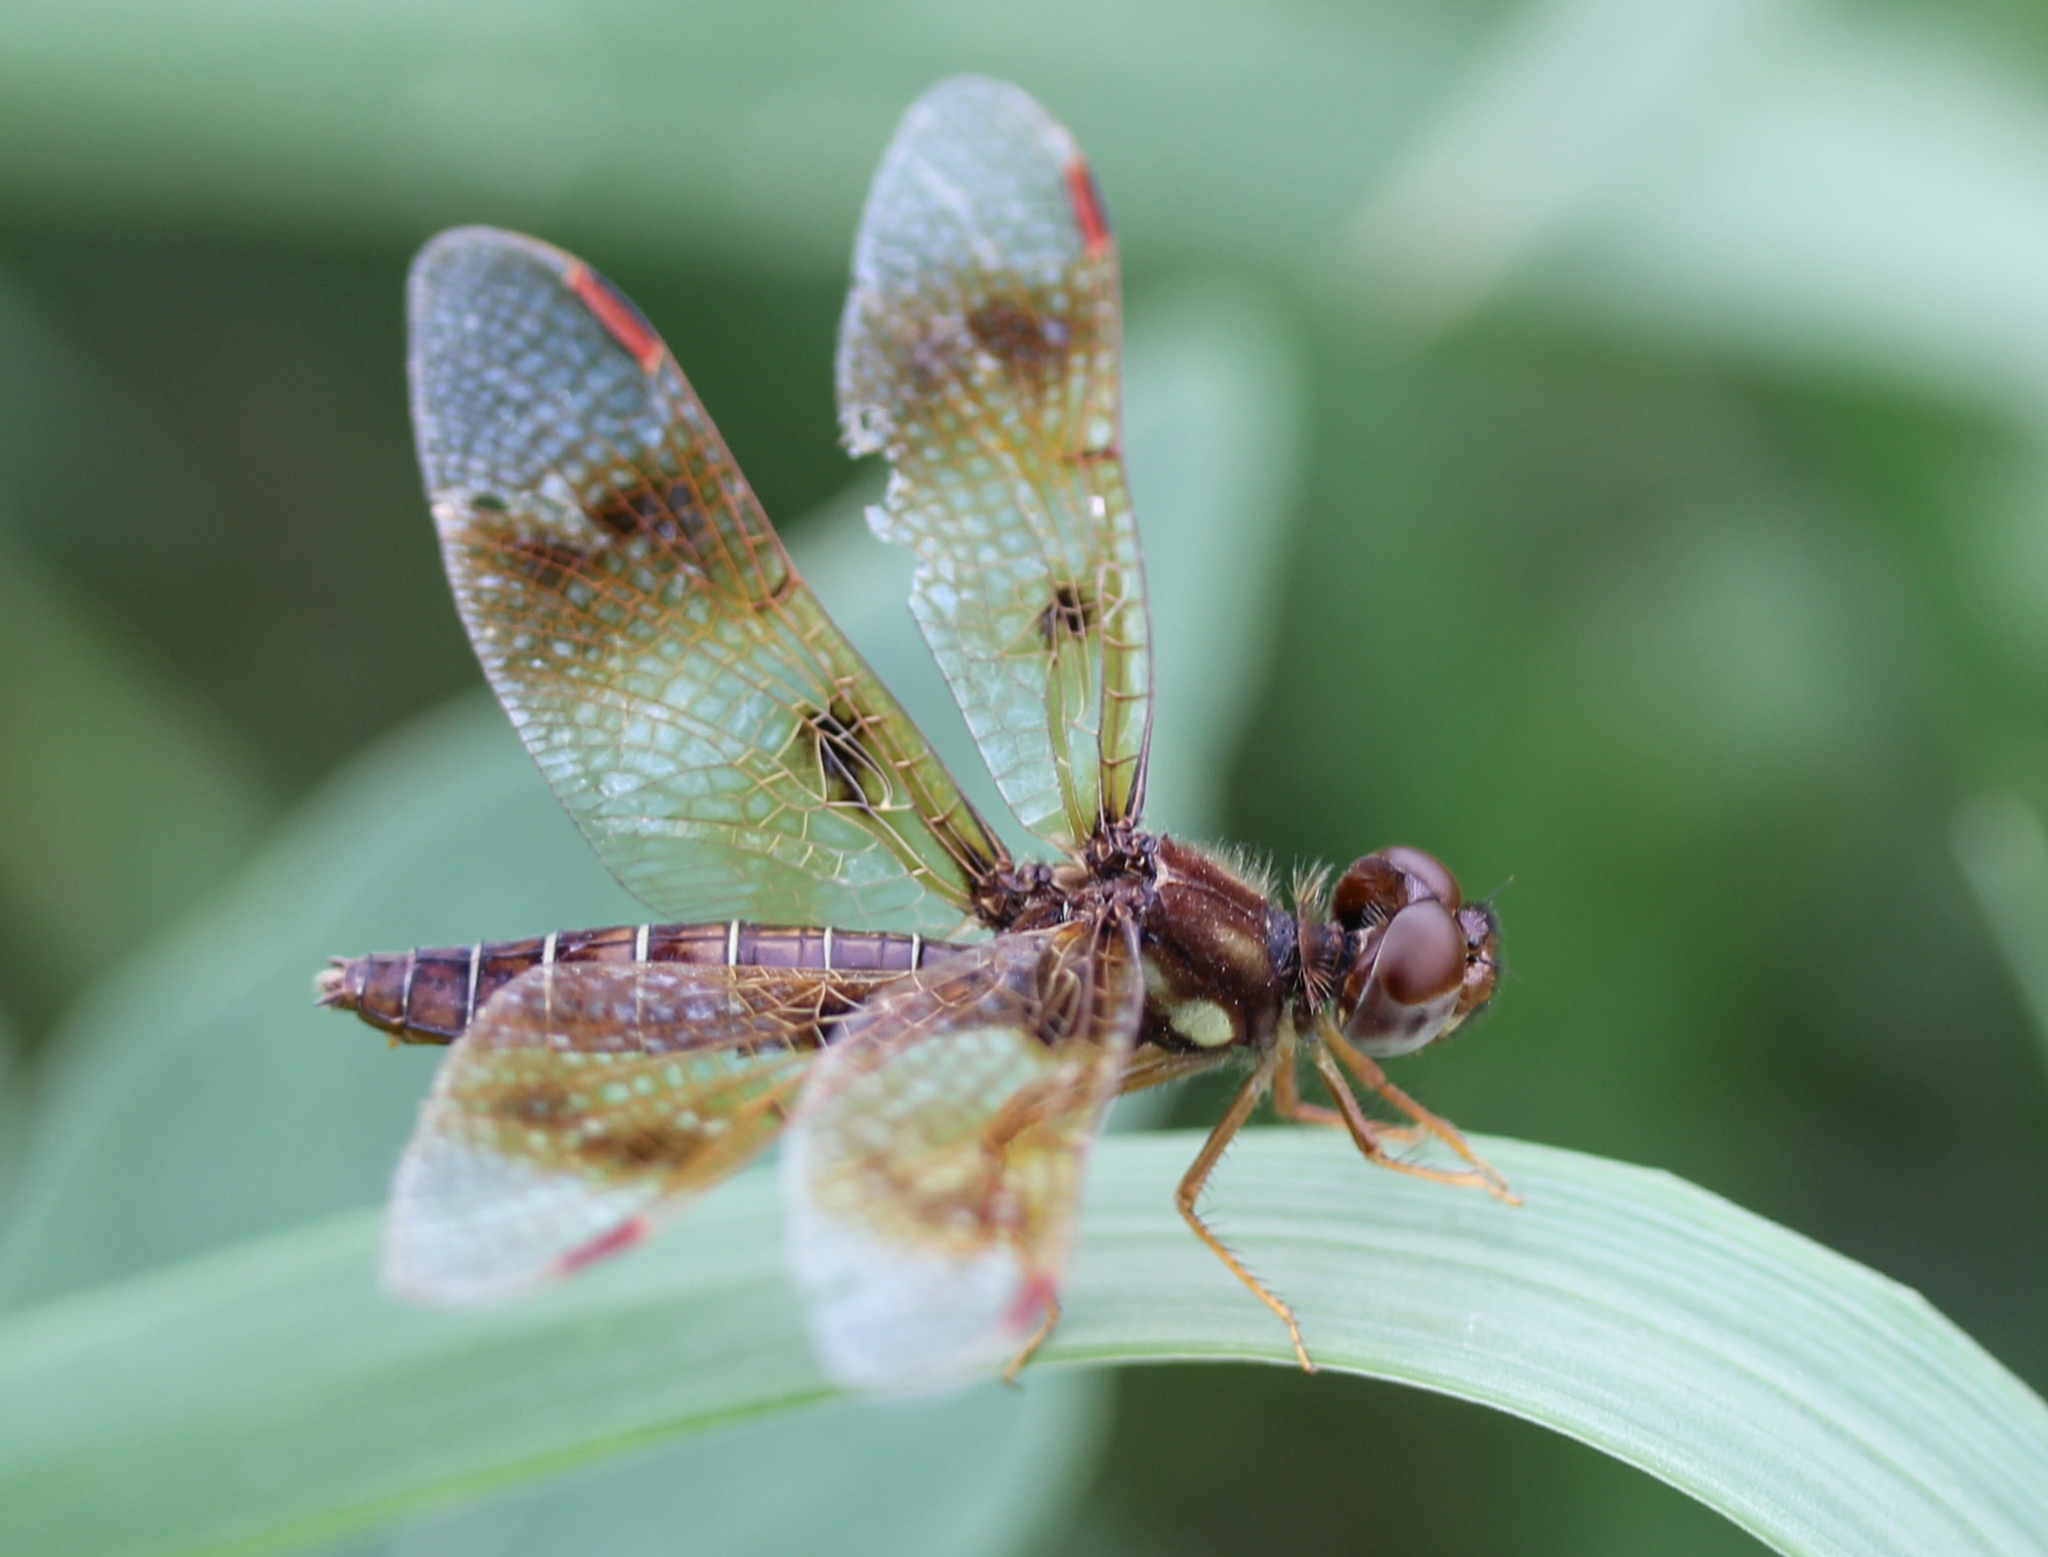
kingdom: Animalia
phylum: Arthropoda
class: Insecta
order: Odonata
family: Libellulidae
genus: Perithemis
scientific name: Perithemis tenera
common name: Eastern amberwing
